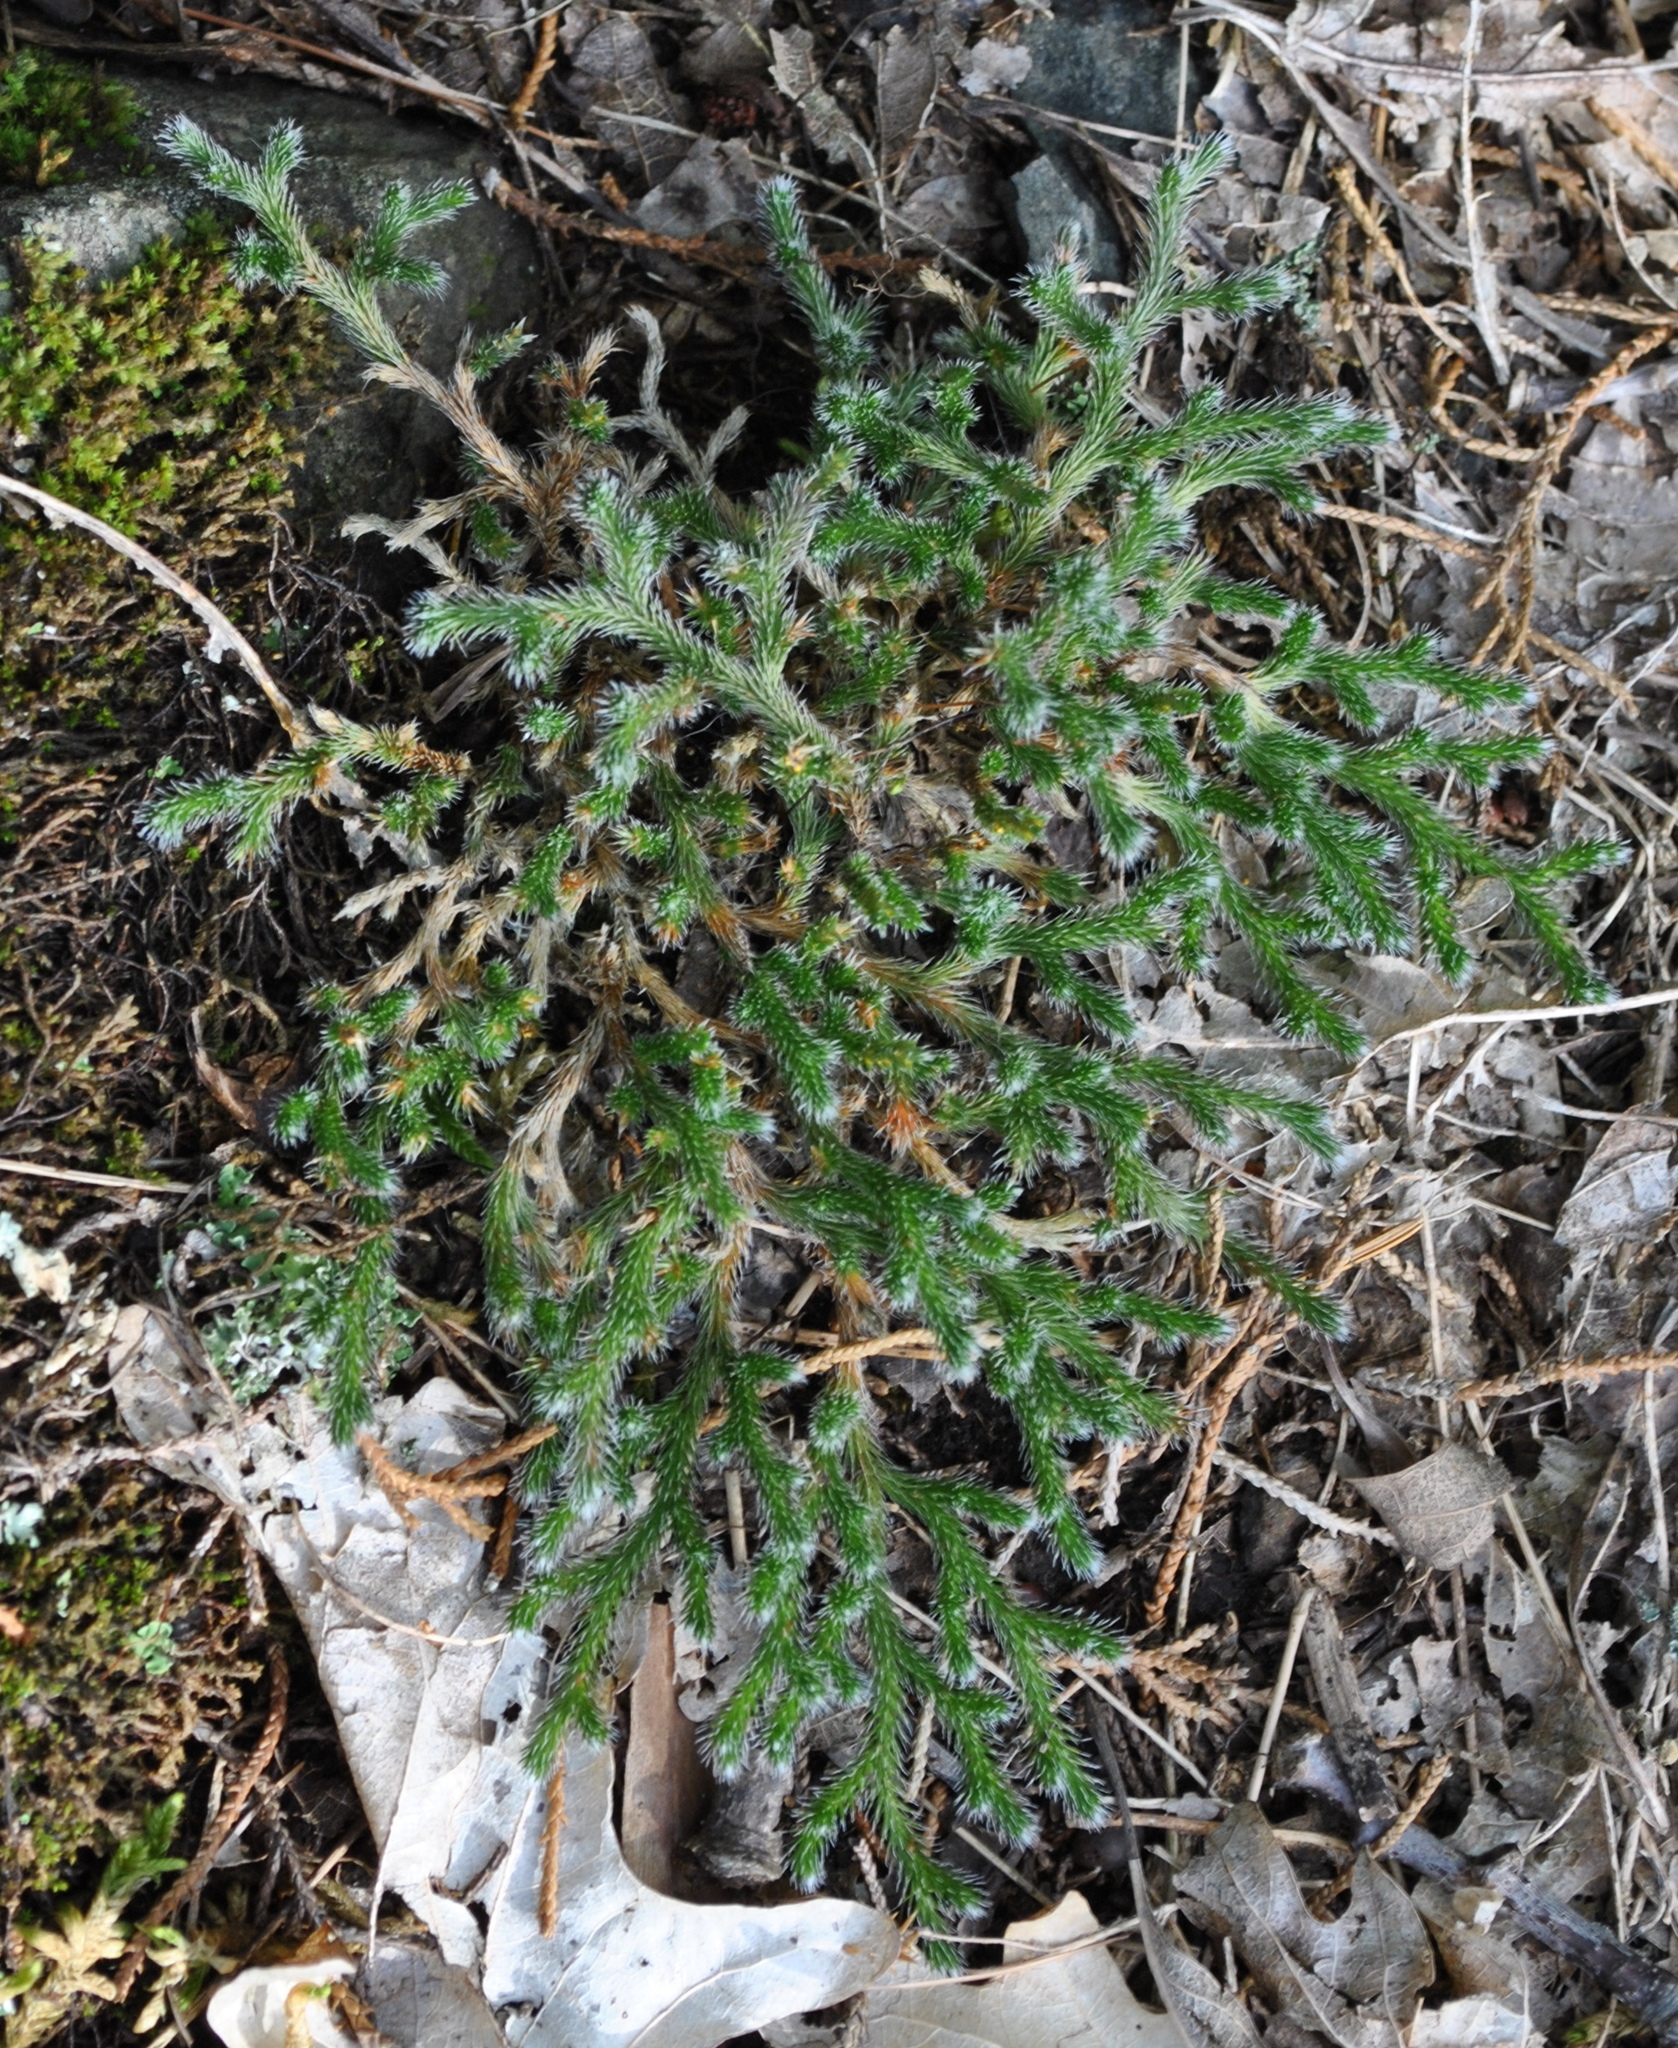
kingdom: Plantae
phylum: Tracheophyta
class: Lycopodiopsida
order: Selaginellales
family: Selaginellaceae
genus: Selaginella
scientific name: Selaginella rupestris
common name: Dwarf spikemoss
